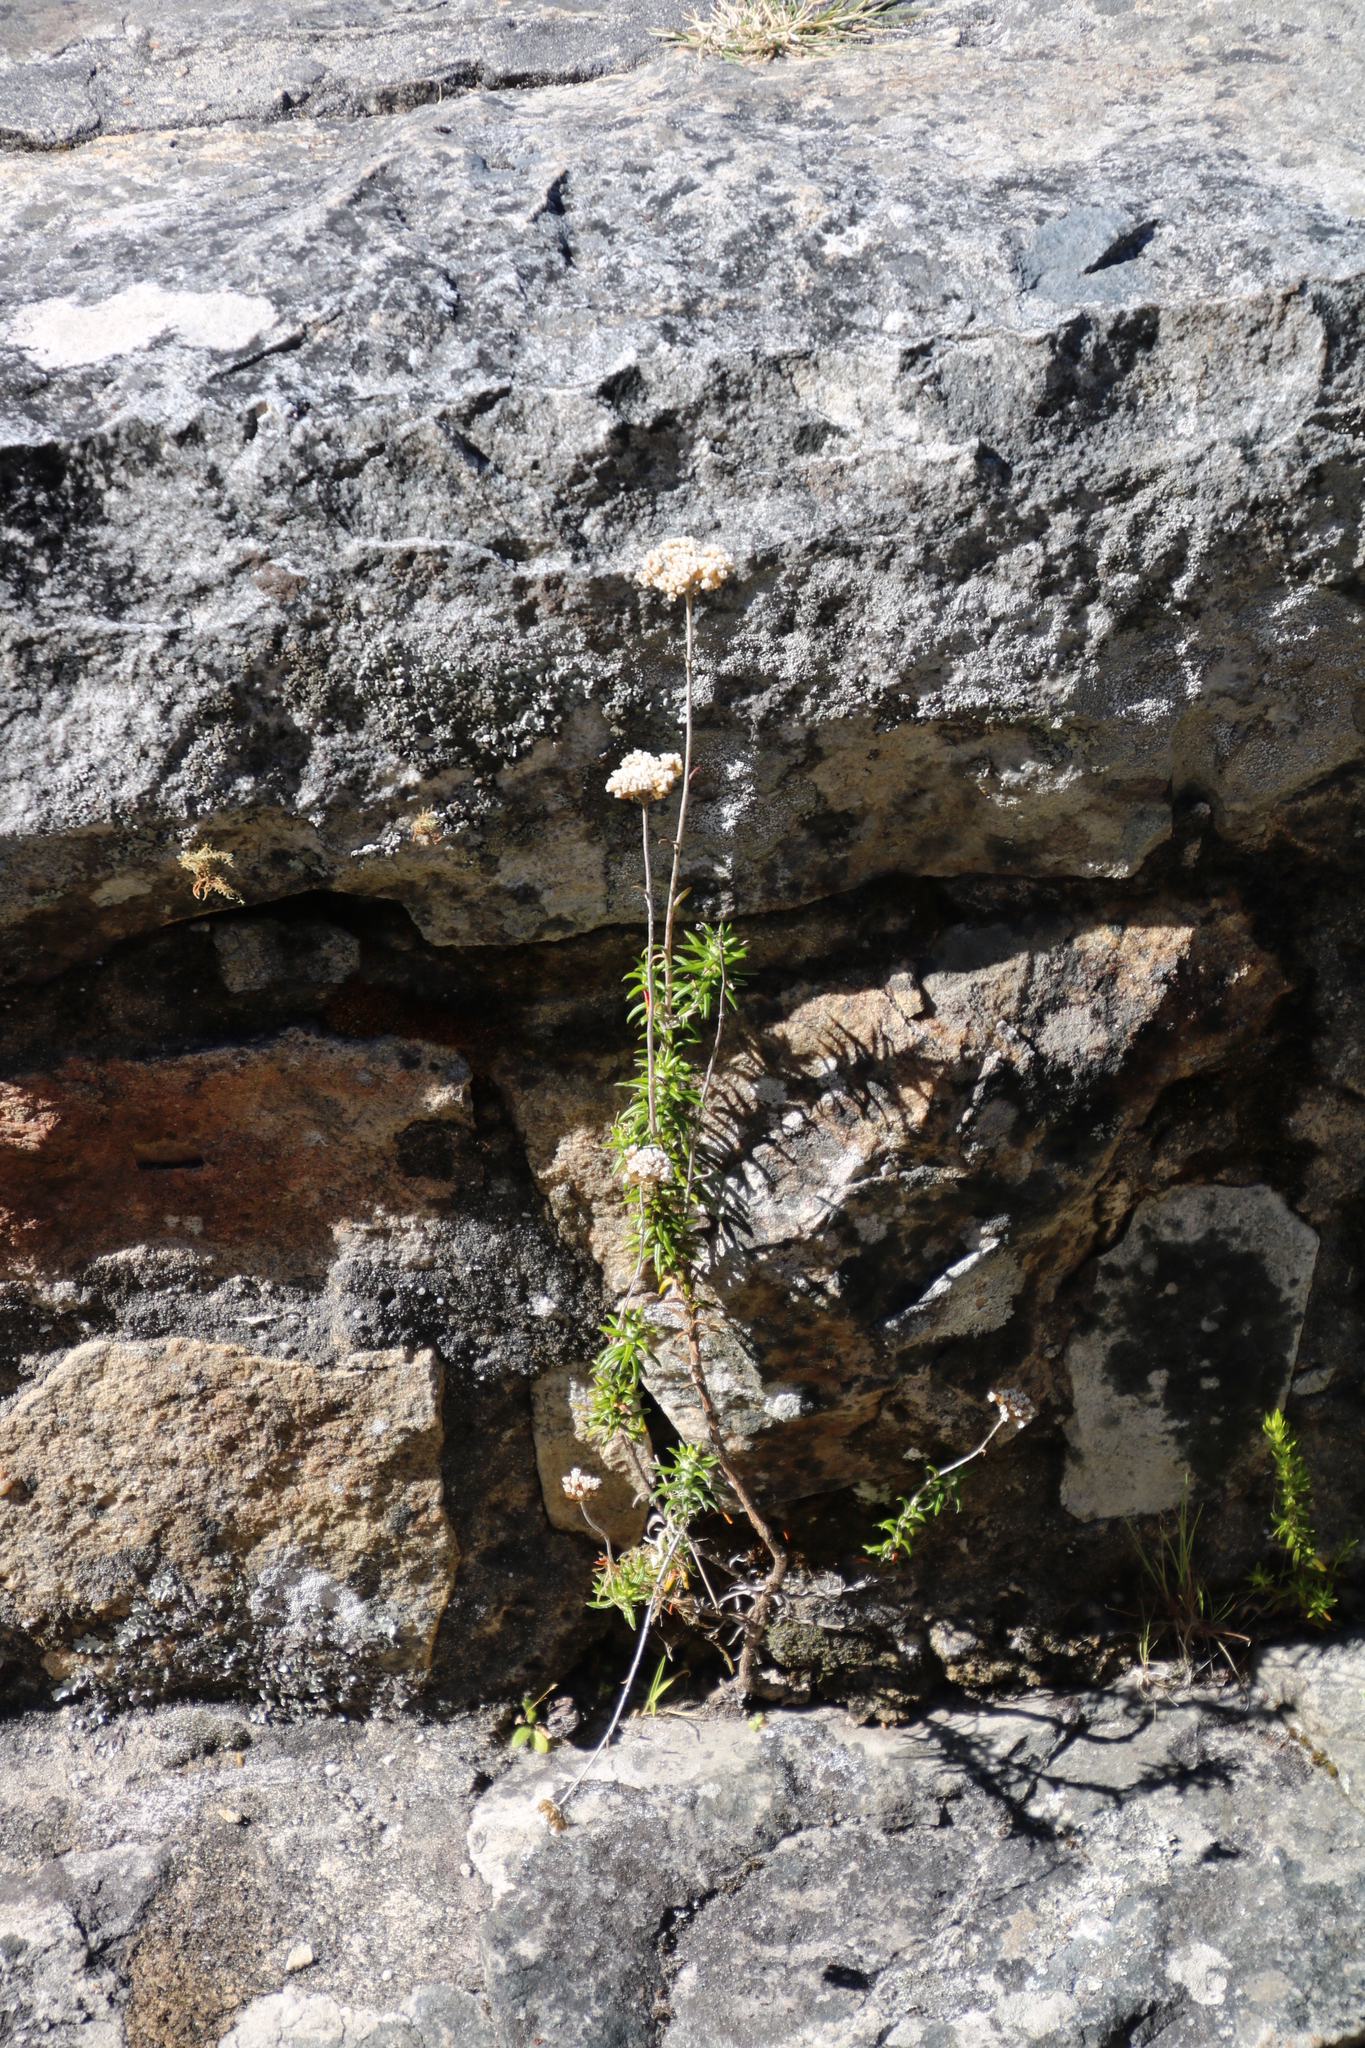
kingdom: Plantae
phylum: Tracheophyta
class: Magnoliopsida
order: Asterales
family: Asteraceae
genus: Helichrysum
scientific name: Helichrysum cymosum
